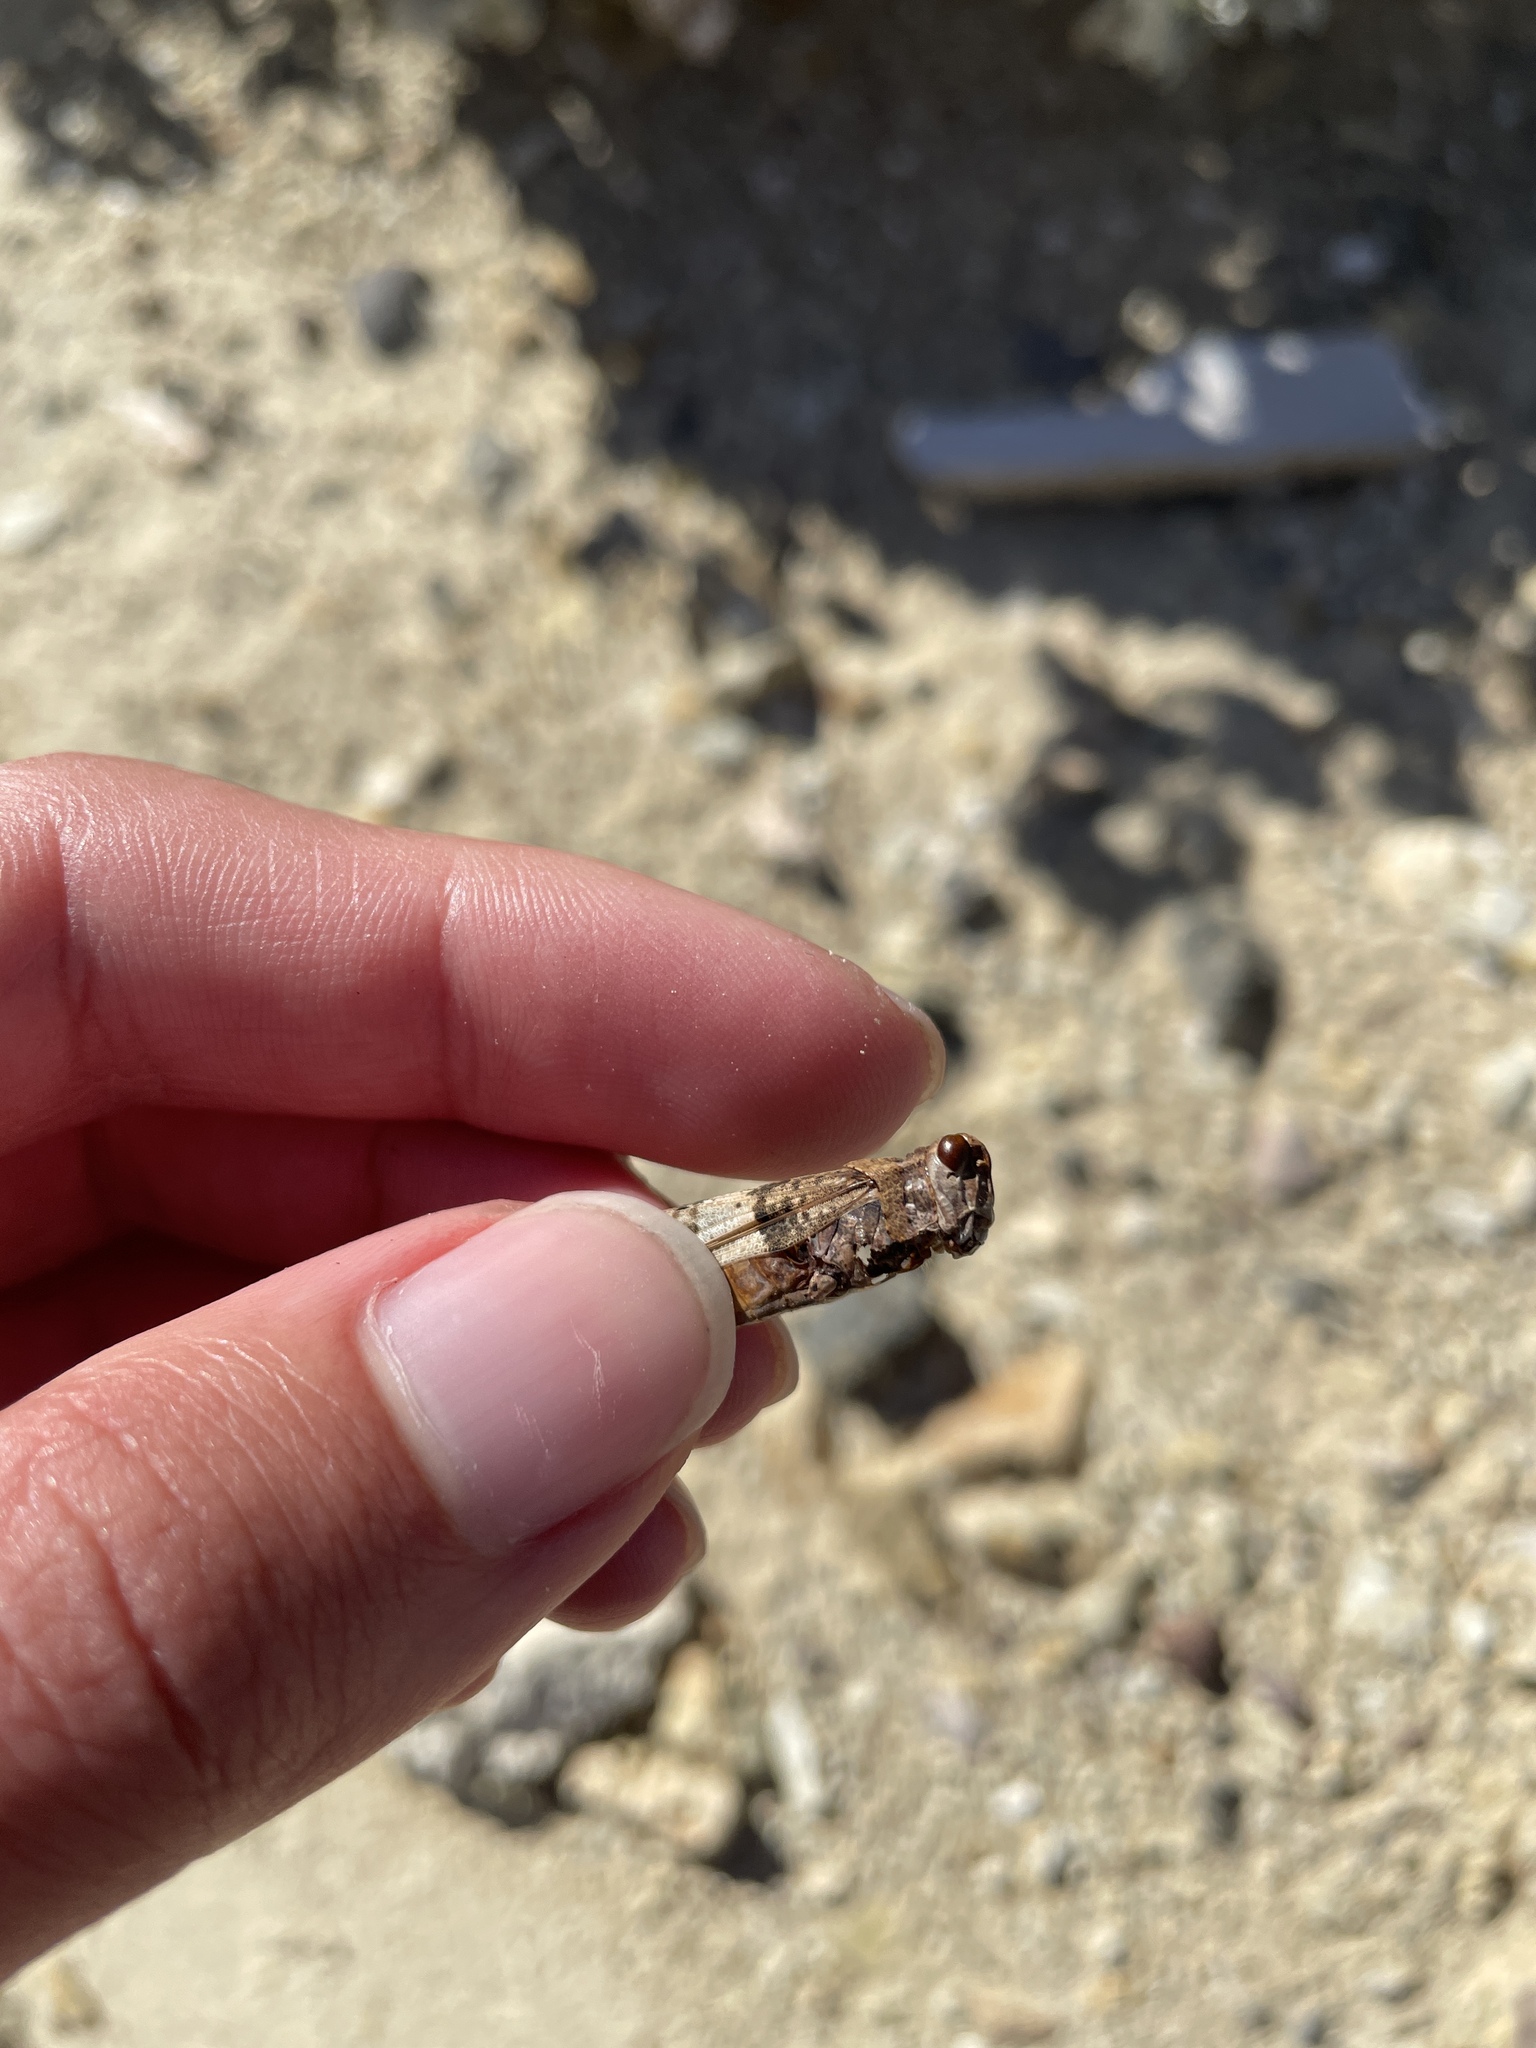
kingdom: Animalia
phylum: Arthropoda
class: Insecta
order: Orthoptera
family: Acrididae
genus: Trimerotropis
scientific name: Trimerotropis pallidipennis
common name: Pallid-winged grasshopper
